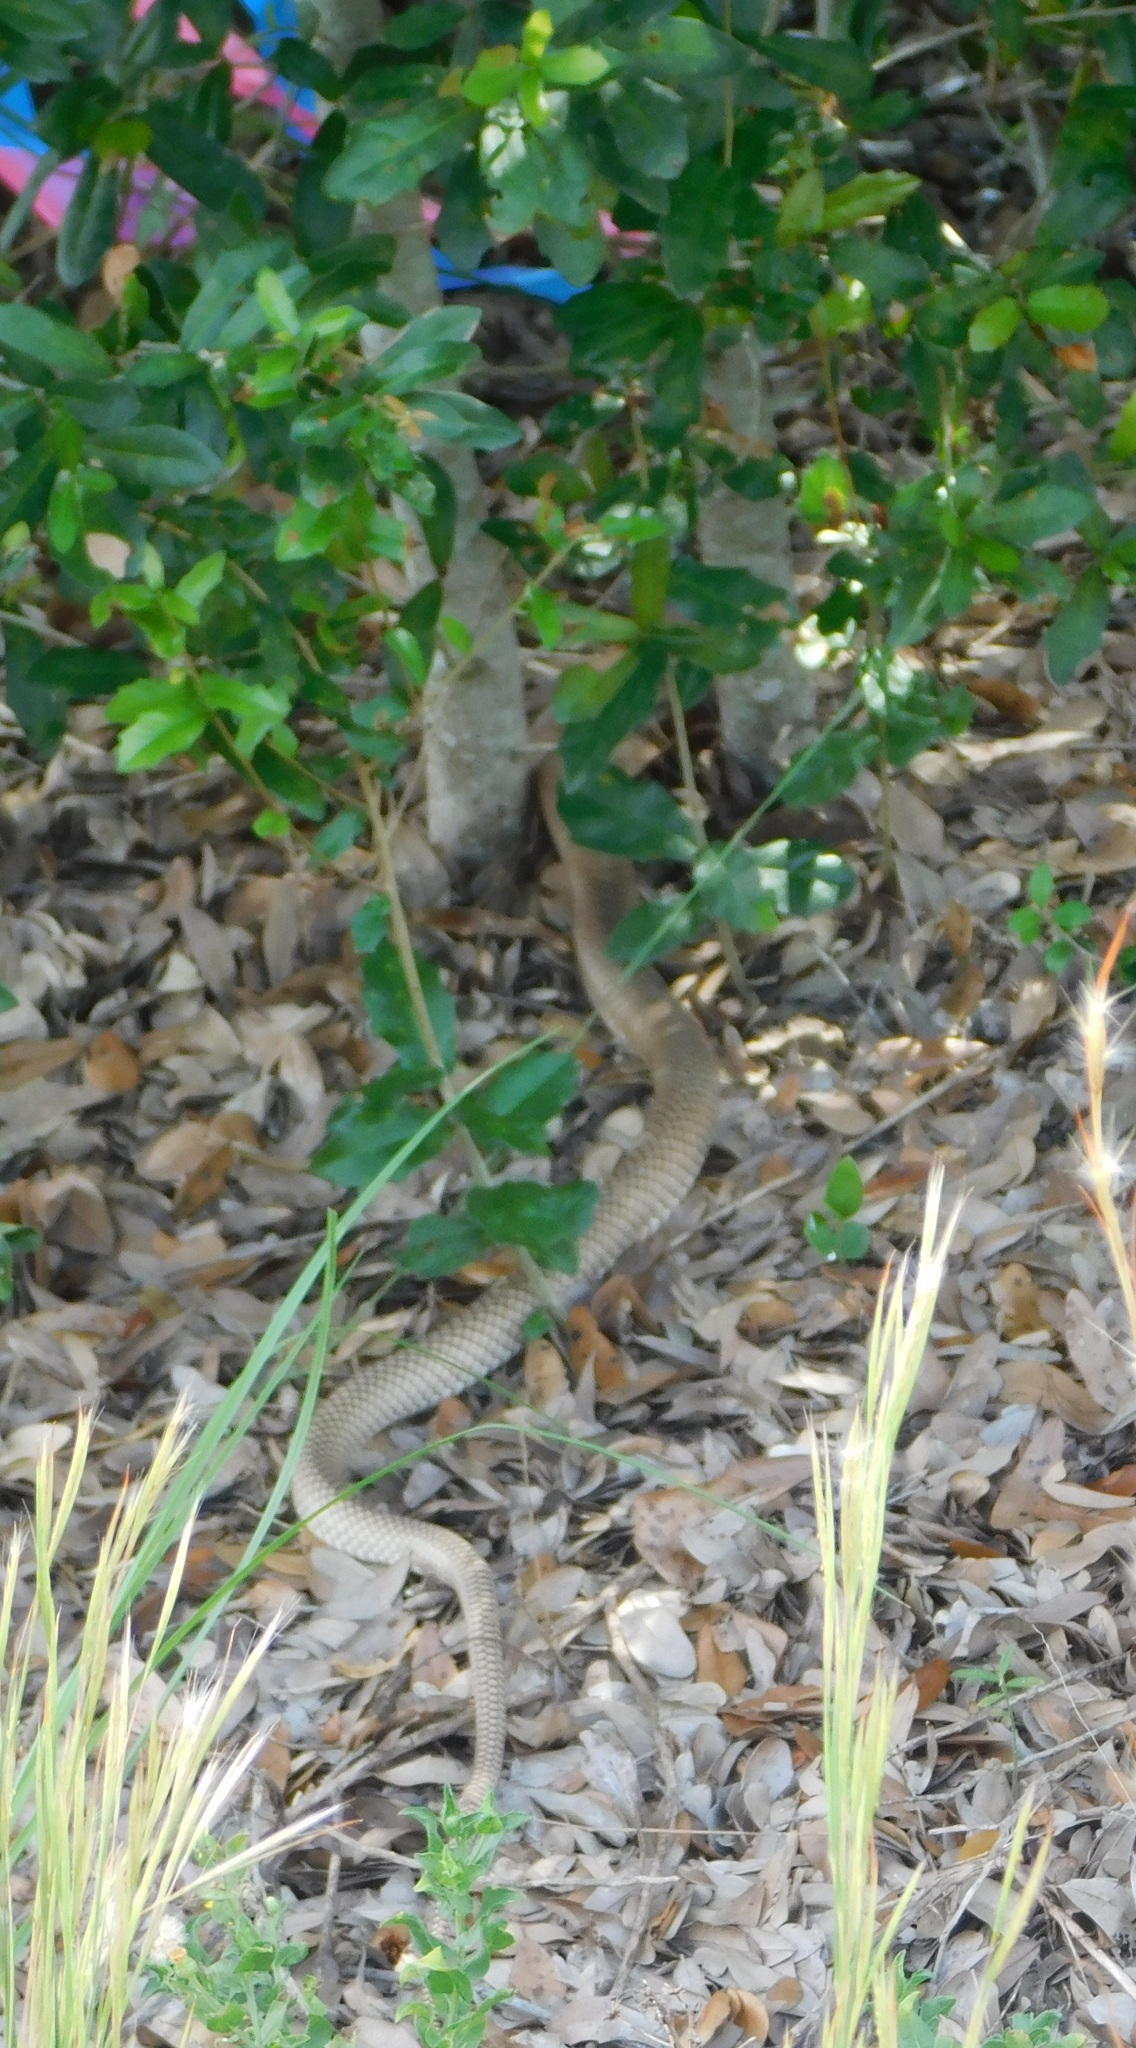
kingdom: Animalia
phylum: Chordata
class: Squamata
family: Colubridae
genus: Masticophis
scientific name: Masticophis flagellum
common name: Coachwhip
